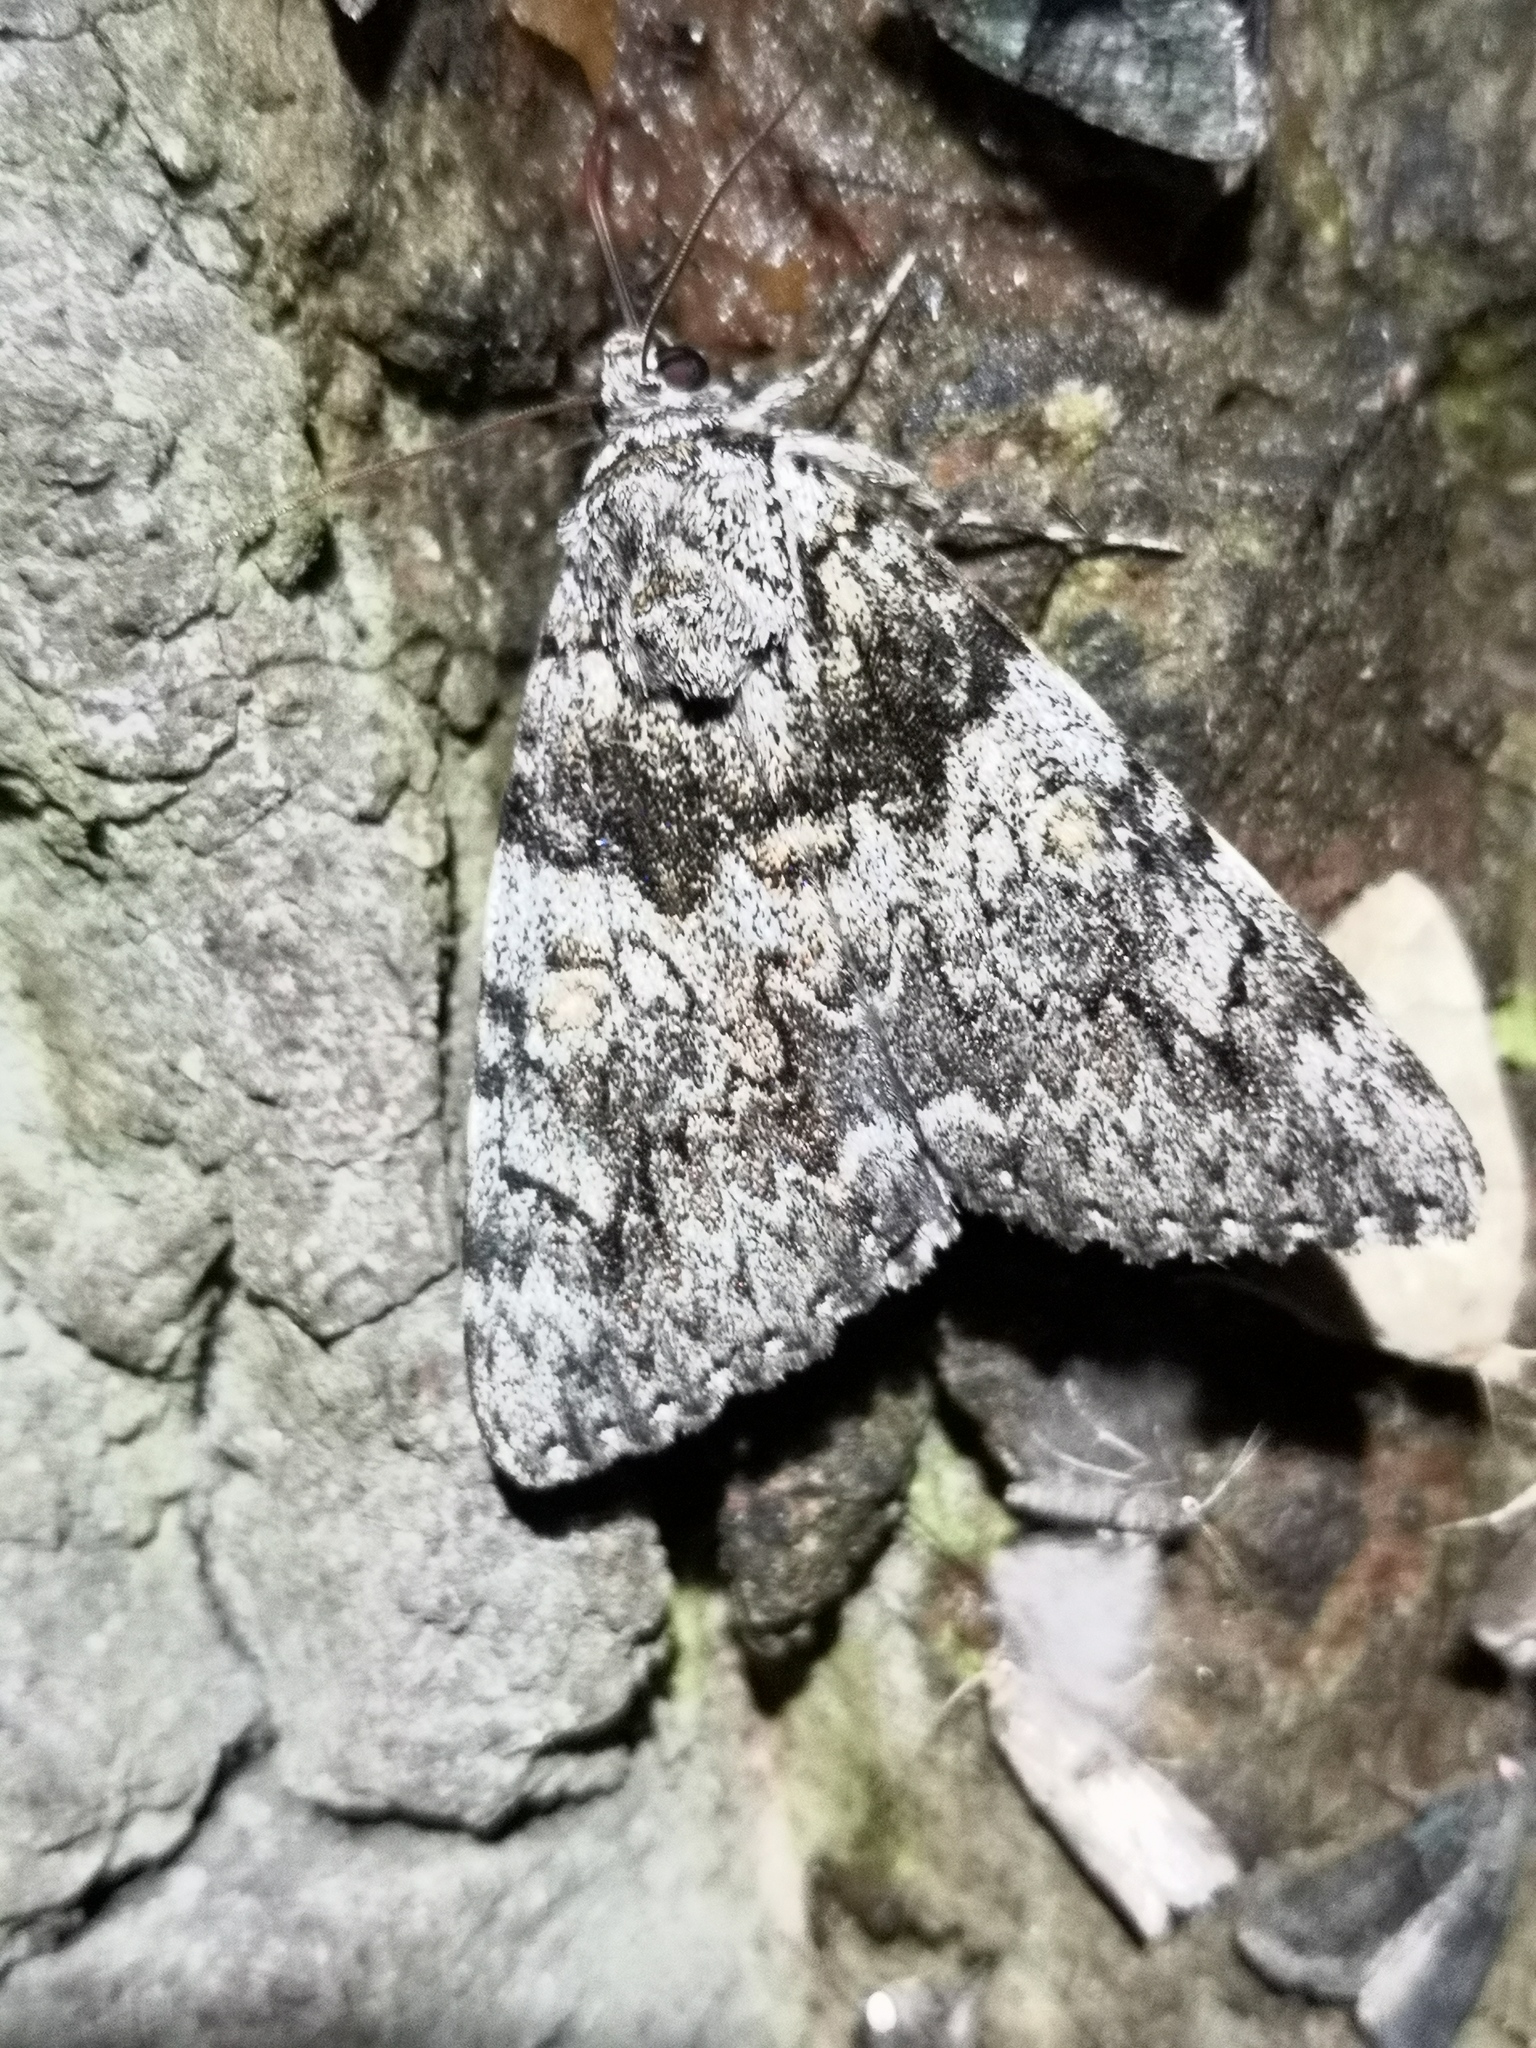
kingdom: Animalia
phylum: Arthropoda
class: Insecta
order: Lepidoptera
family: Erebidae
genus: Catocala
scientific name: Catocala promissa
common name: Light crimson underwing
